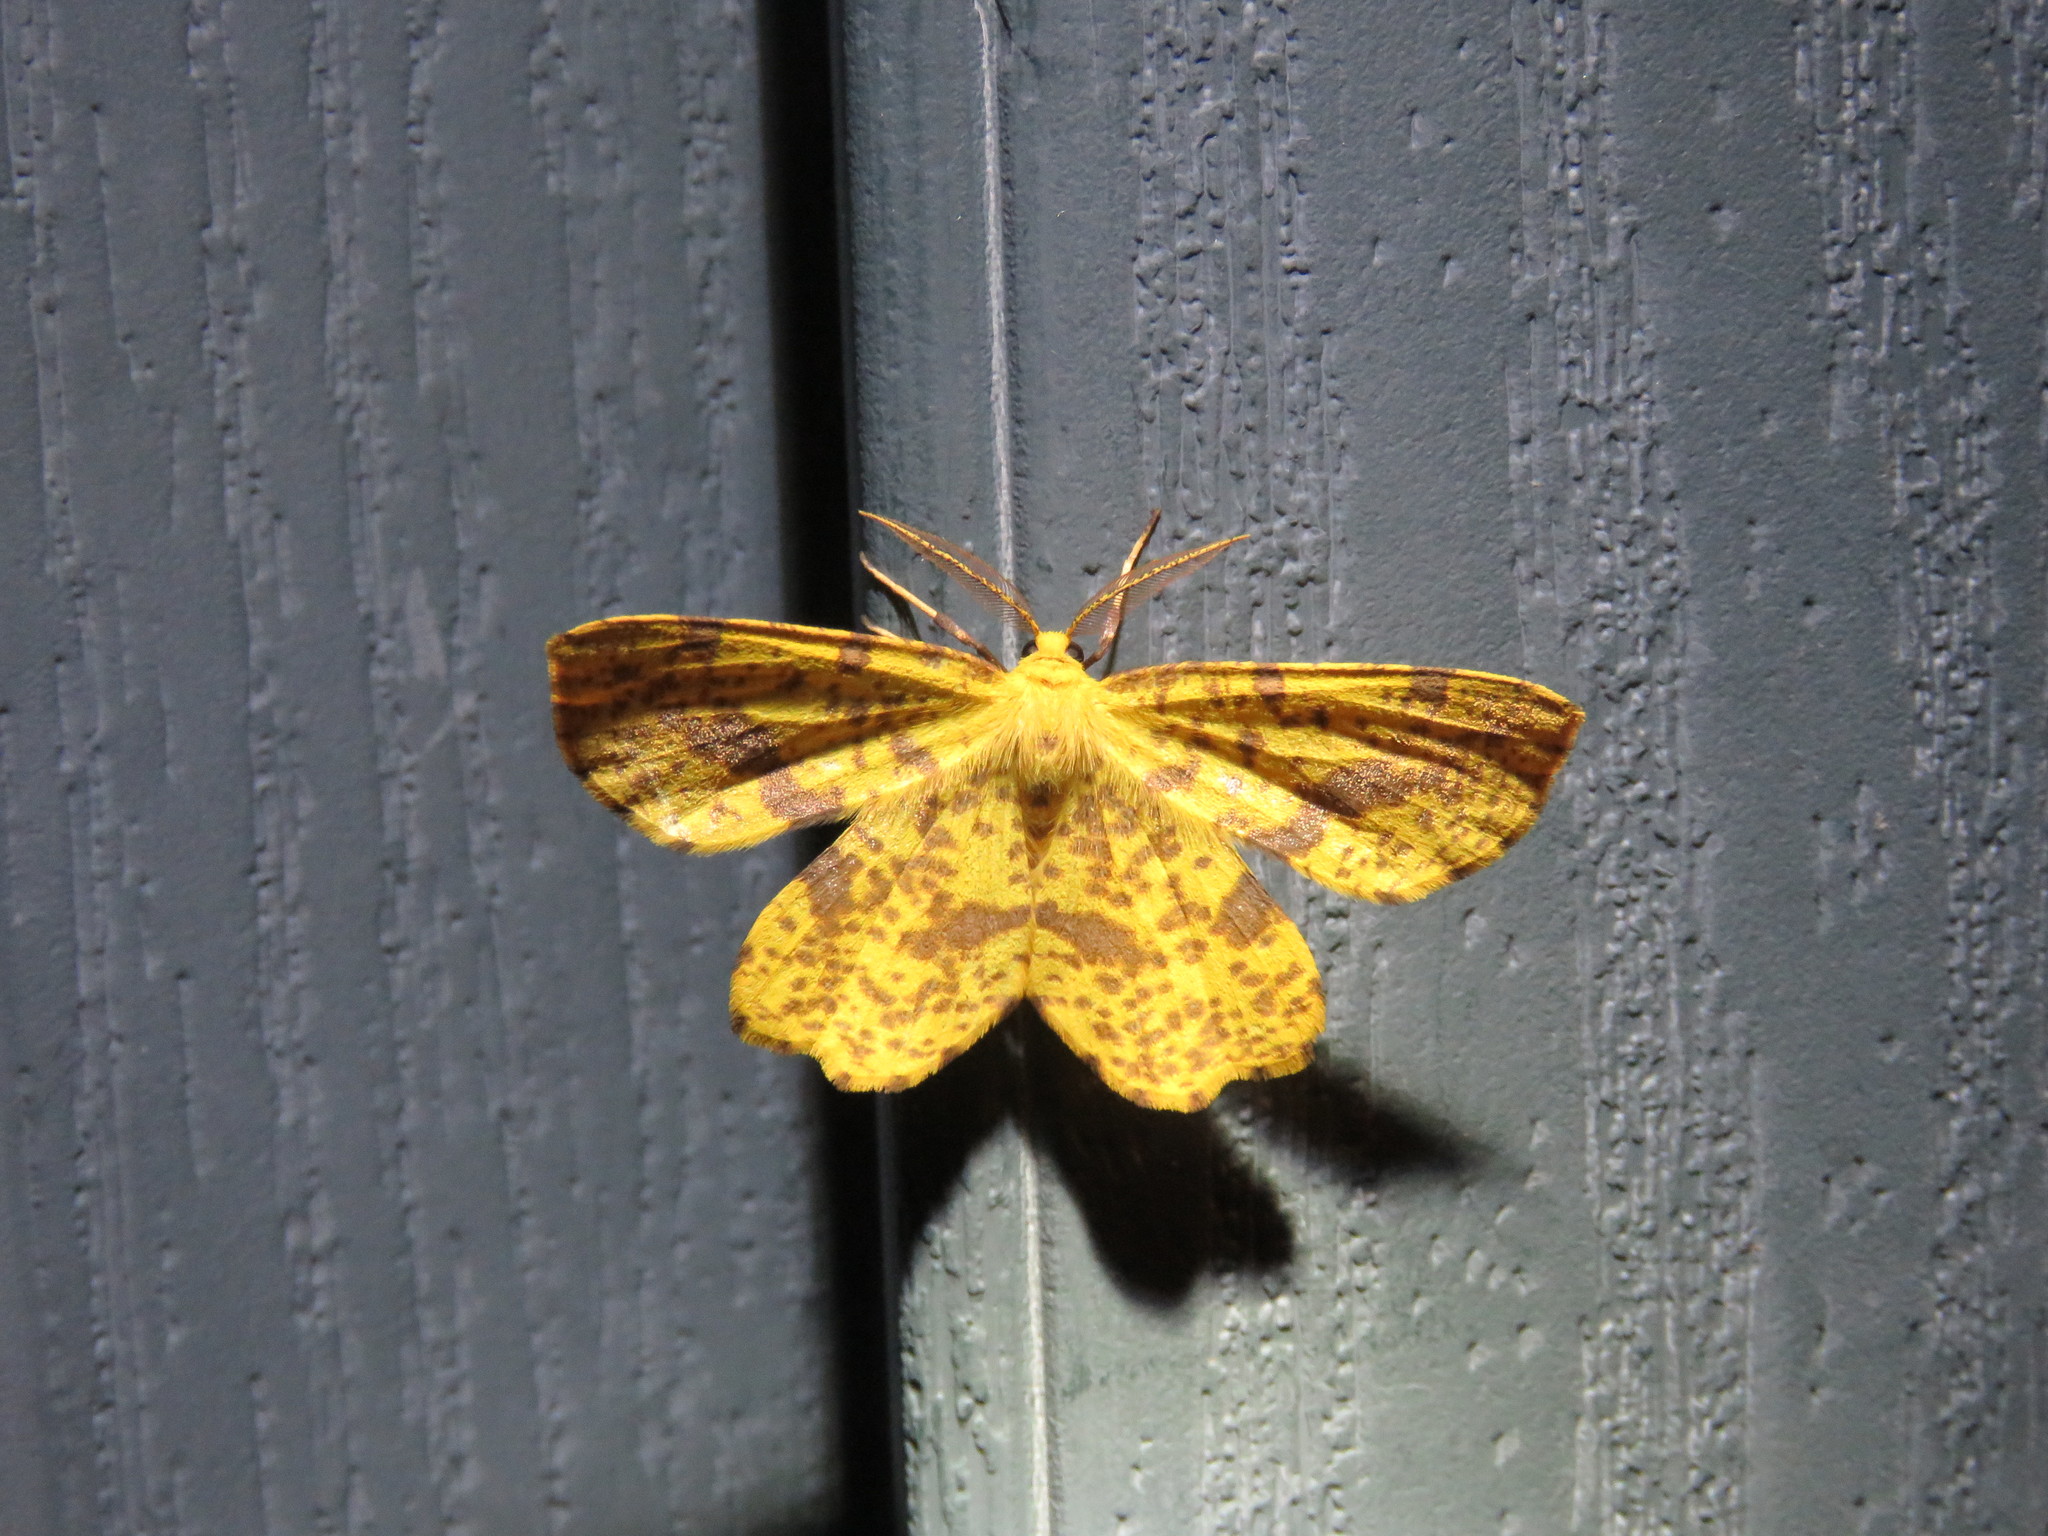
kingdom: Animalia
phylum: Arthropoda
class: Insecta
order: Lepidoptera
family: Geometridae
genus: Xanthotype
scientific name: Xanthotype
